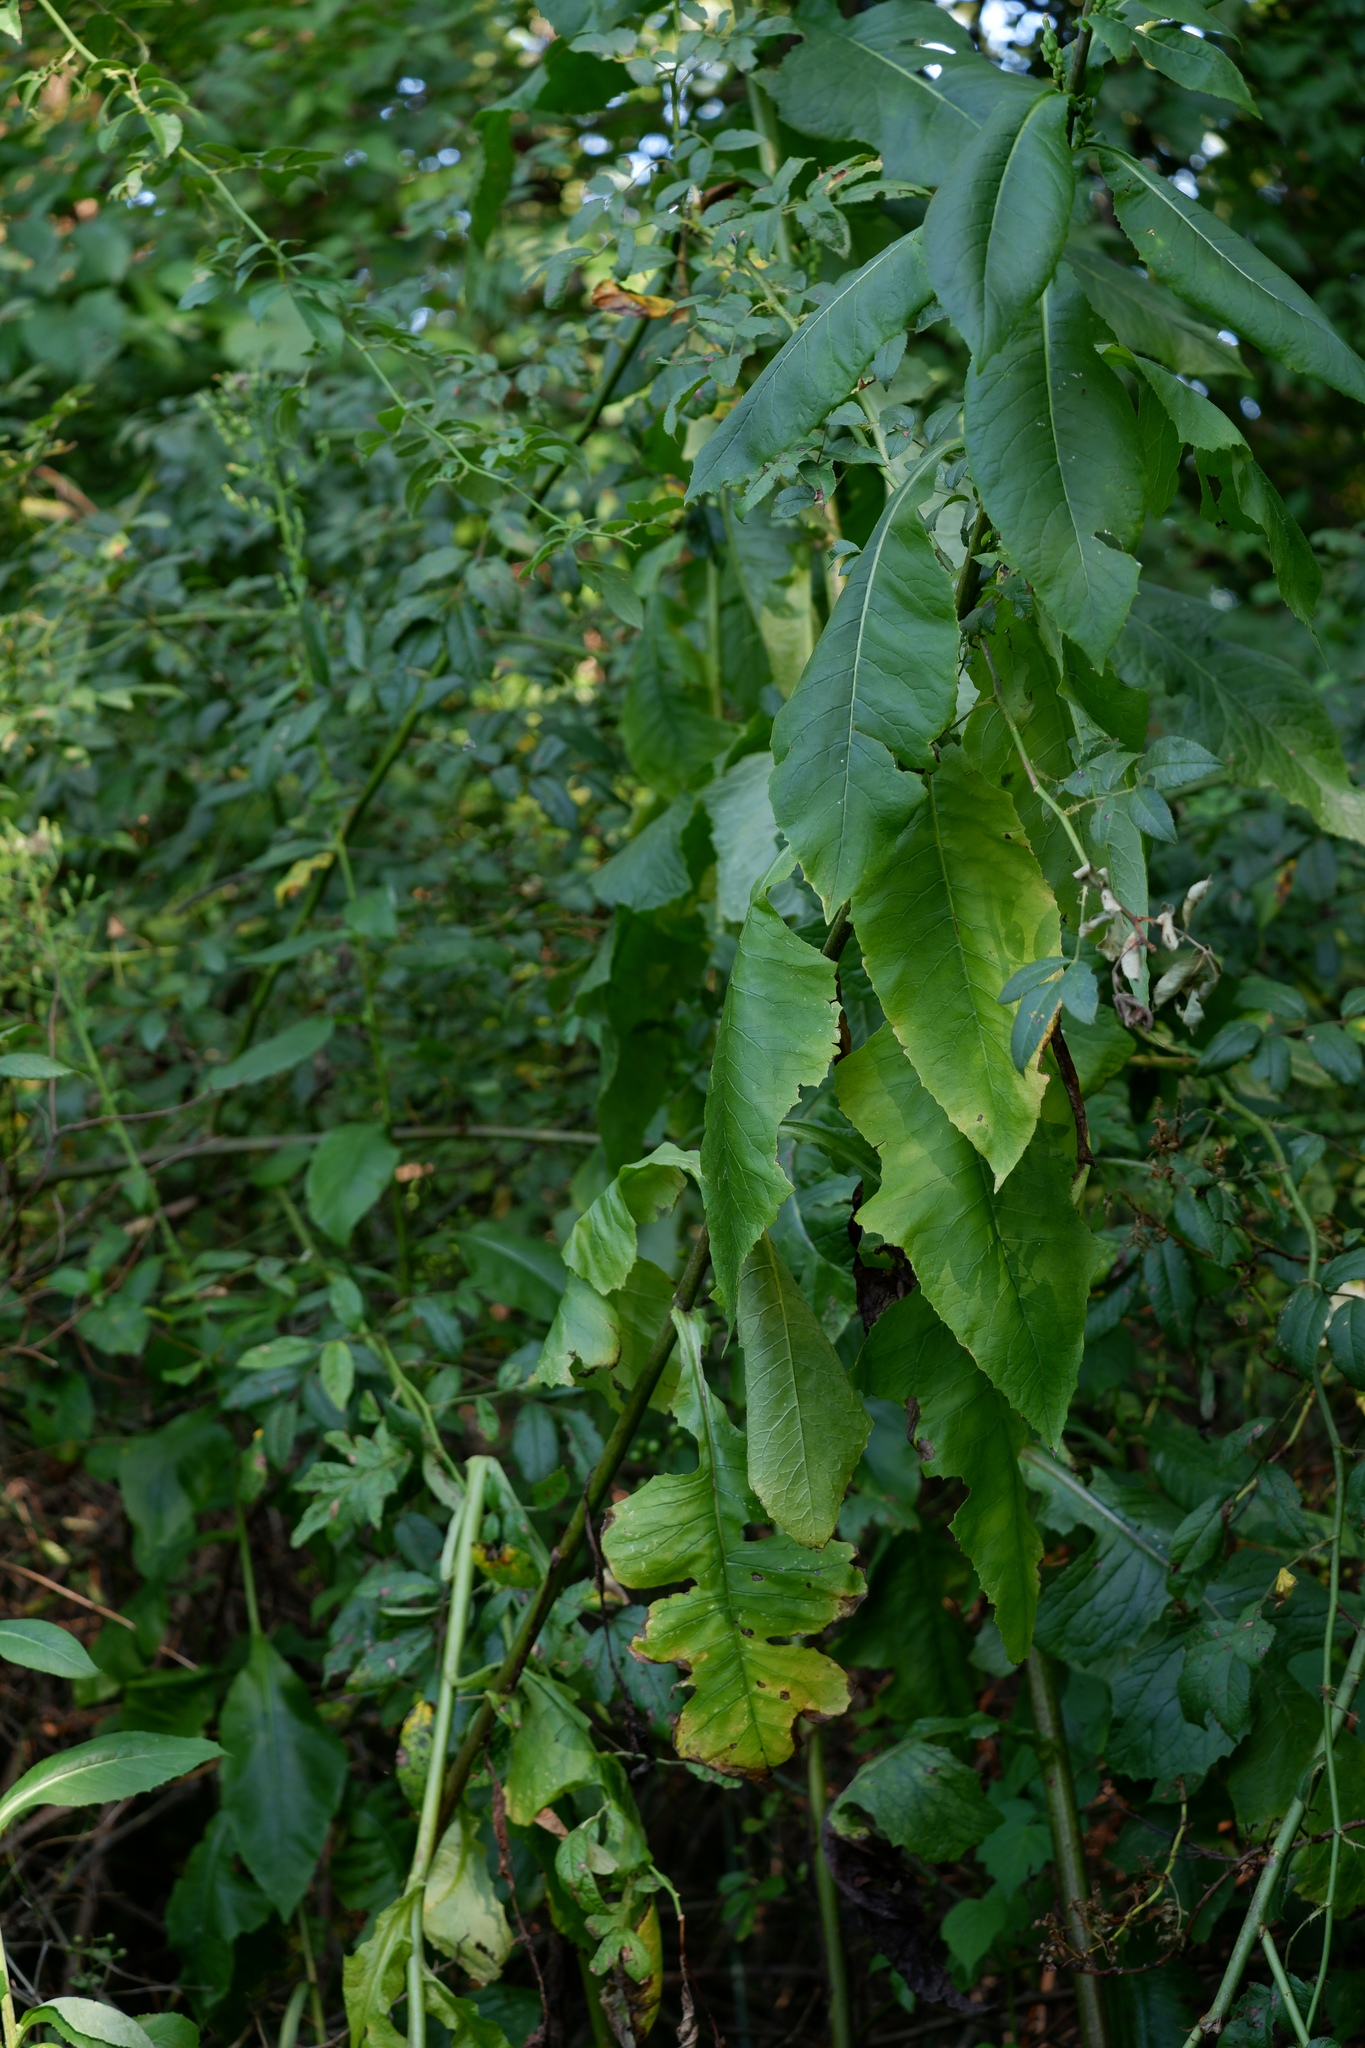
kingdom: Plantae
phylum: Tracheophyta
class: Magnoliopsida
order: Asterales
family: Asteraceae
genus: Lactuca
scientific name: Lactuca biennis
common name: Blue wood lettuce
